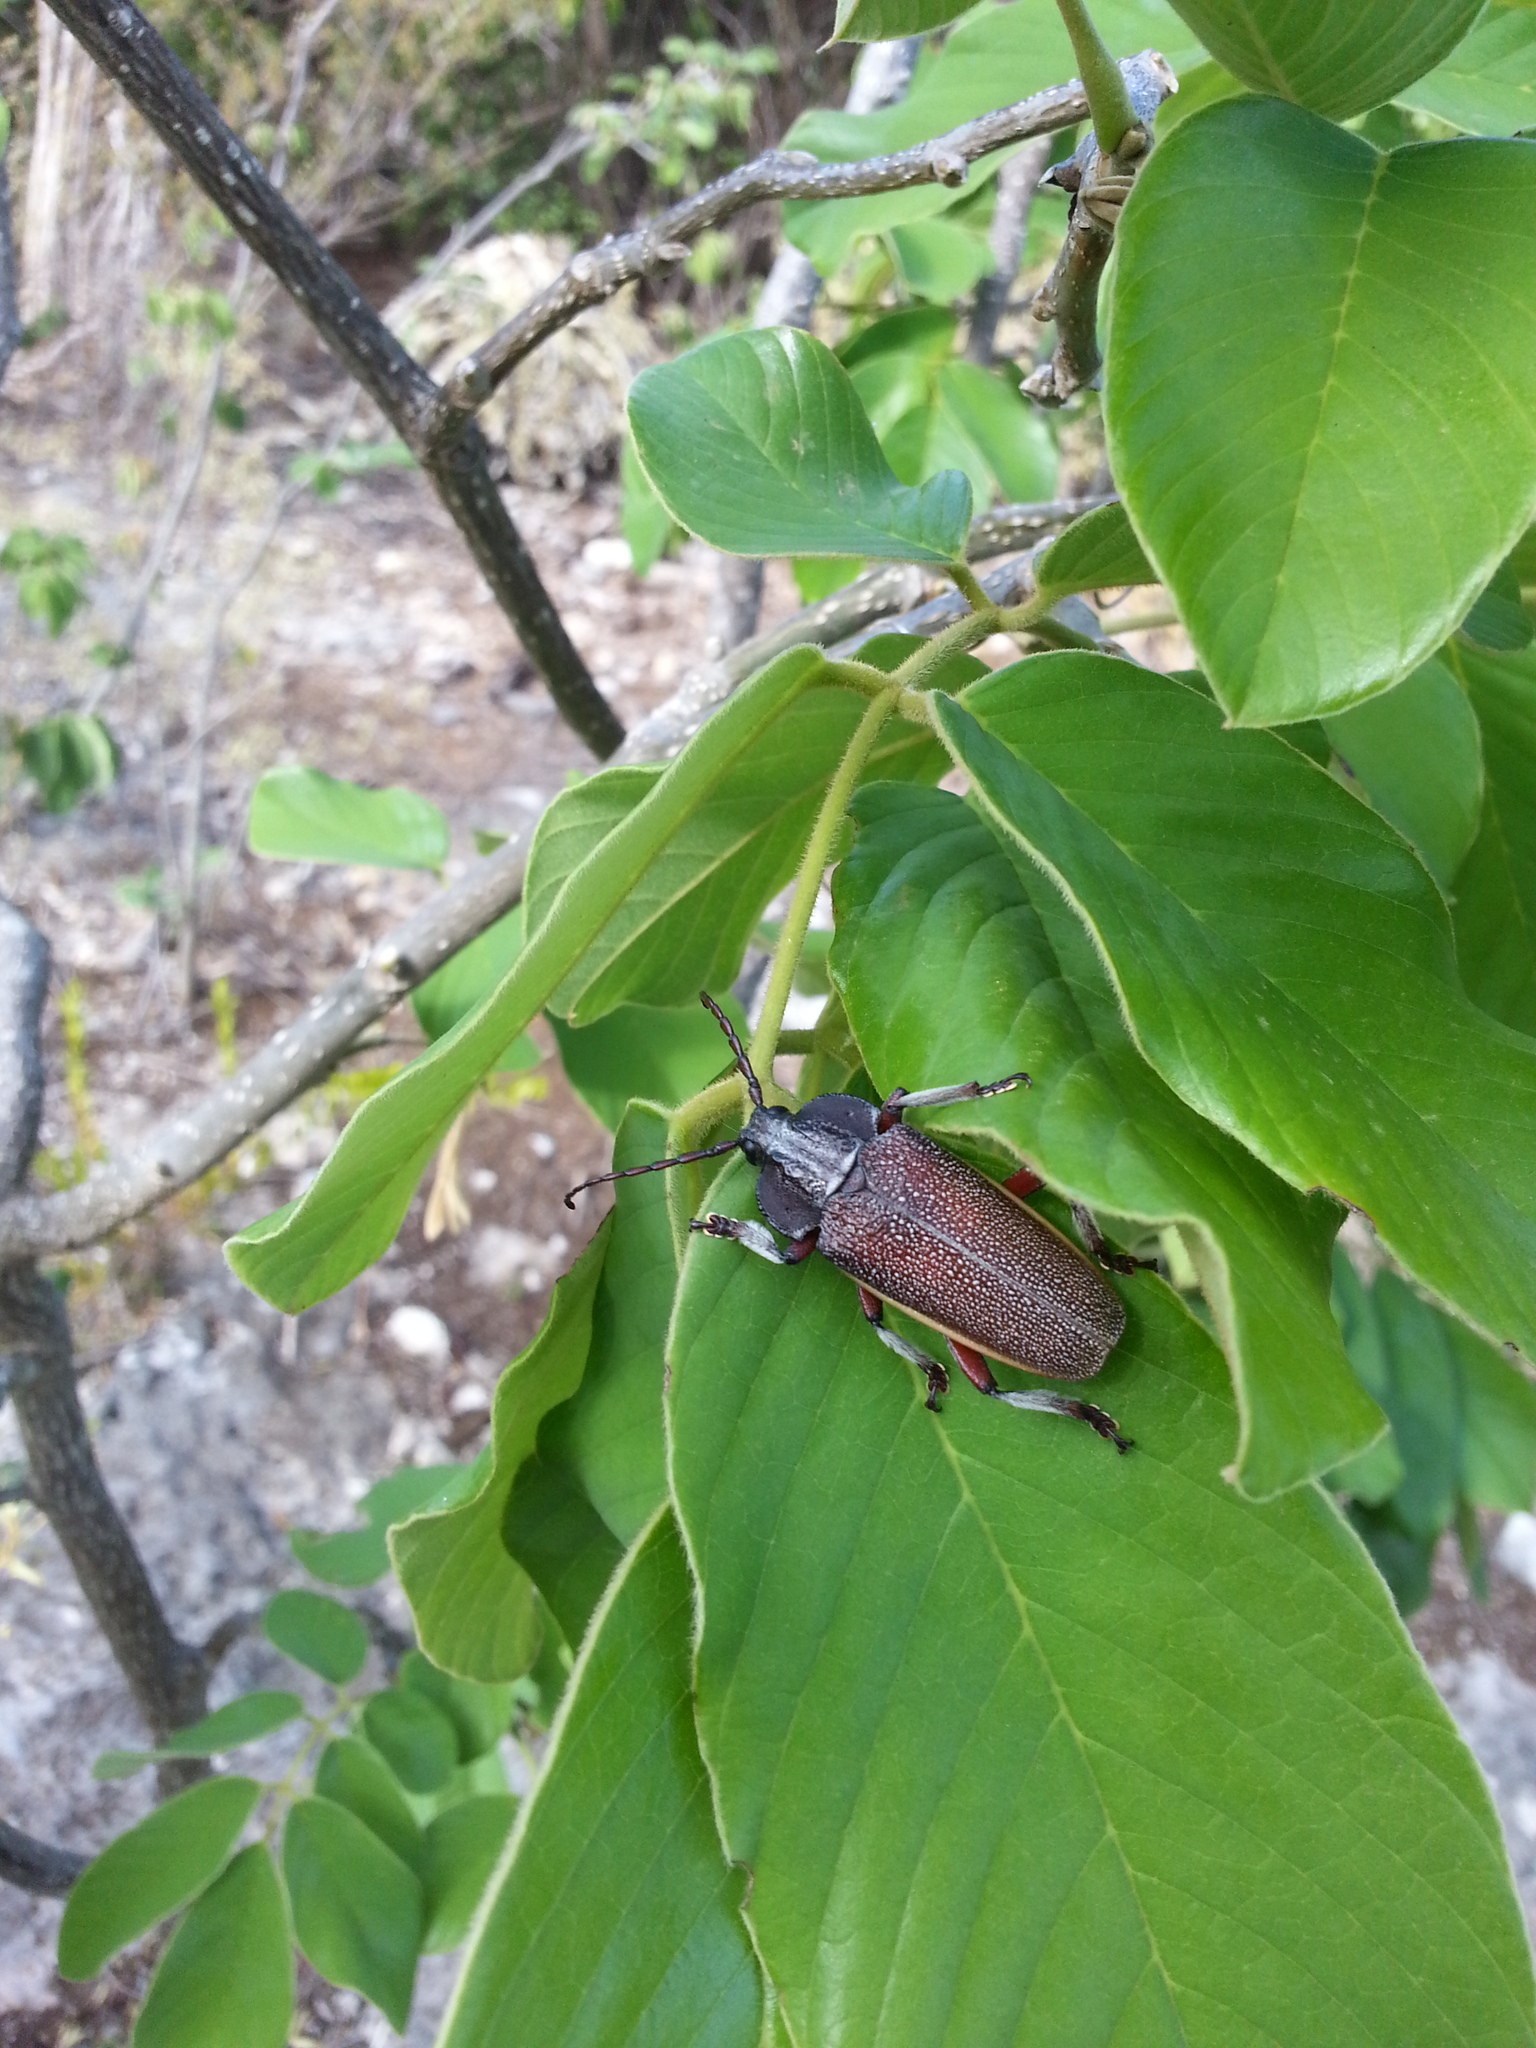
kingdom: Animalia
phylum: Arthropoda
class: Insecta
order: Coleoptera
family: Cerambycidae
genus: Solenoptera
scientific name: Solenoptera bilineata
